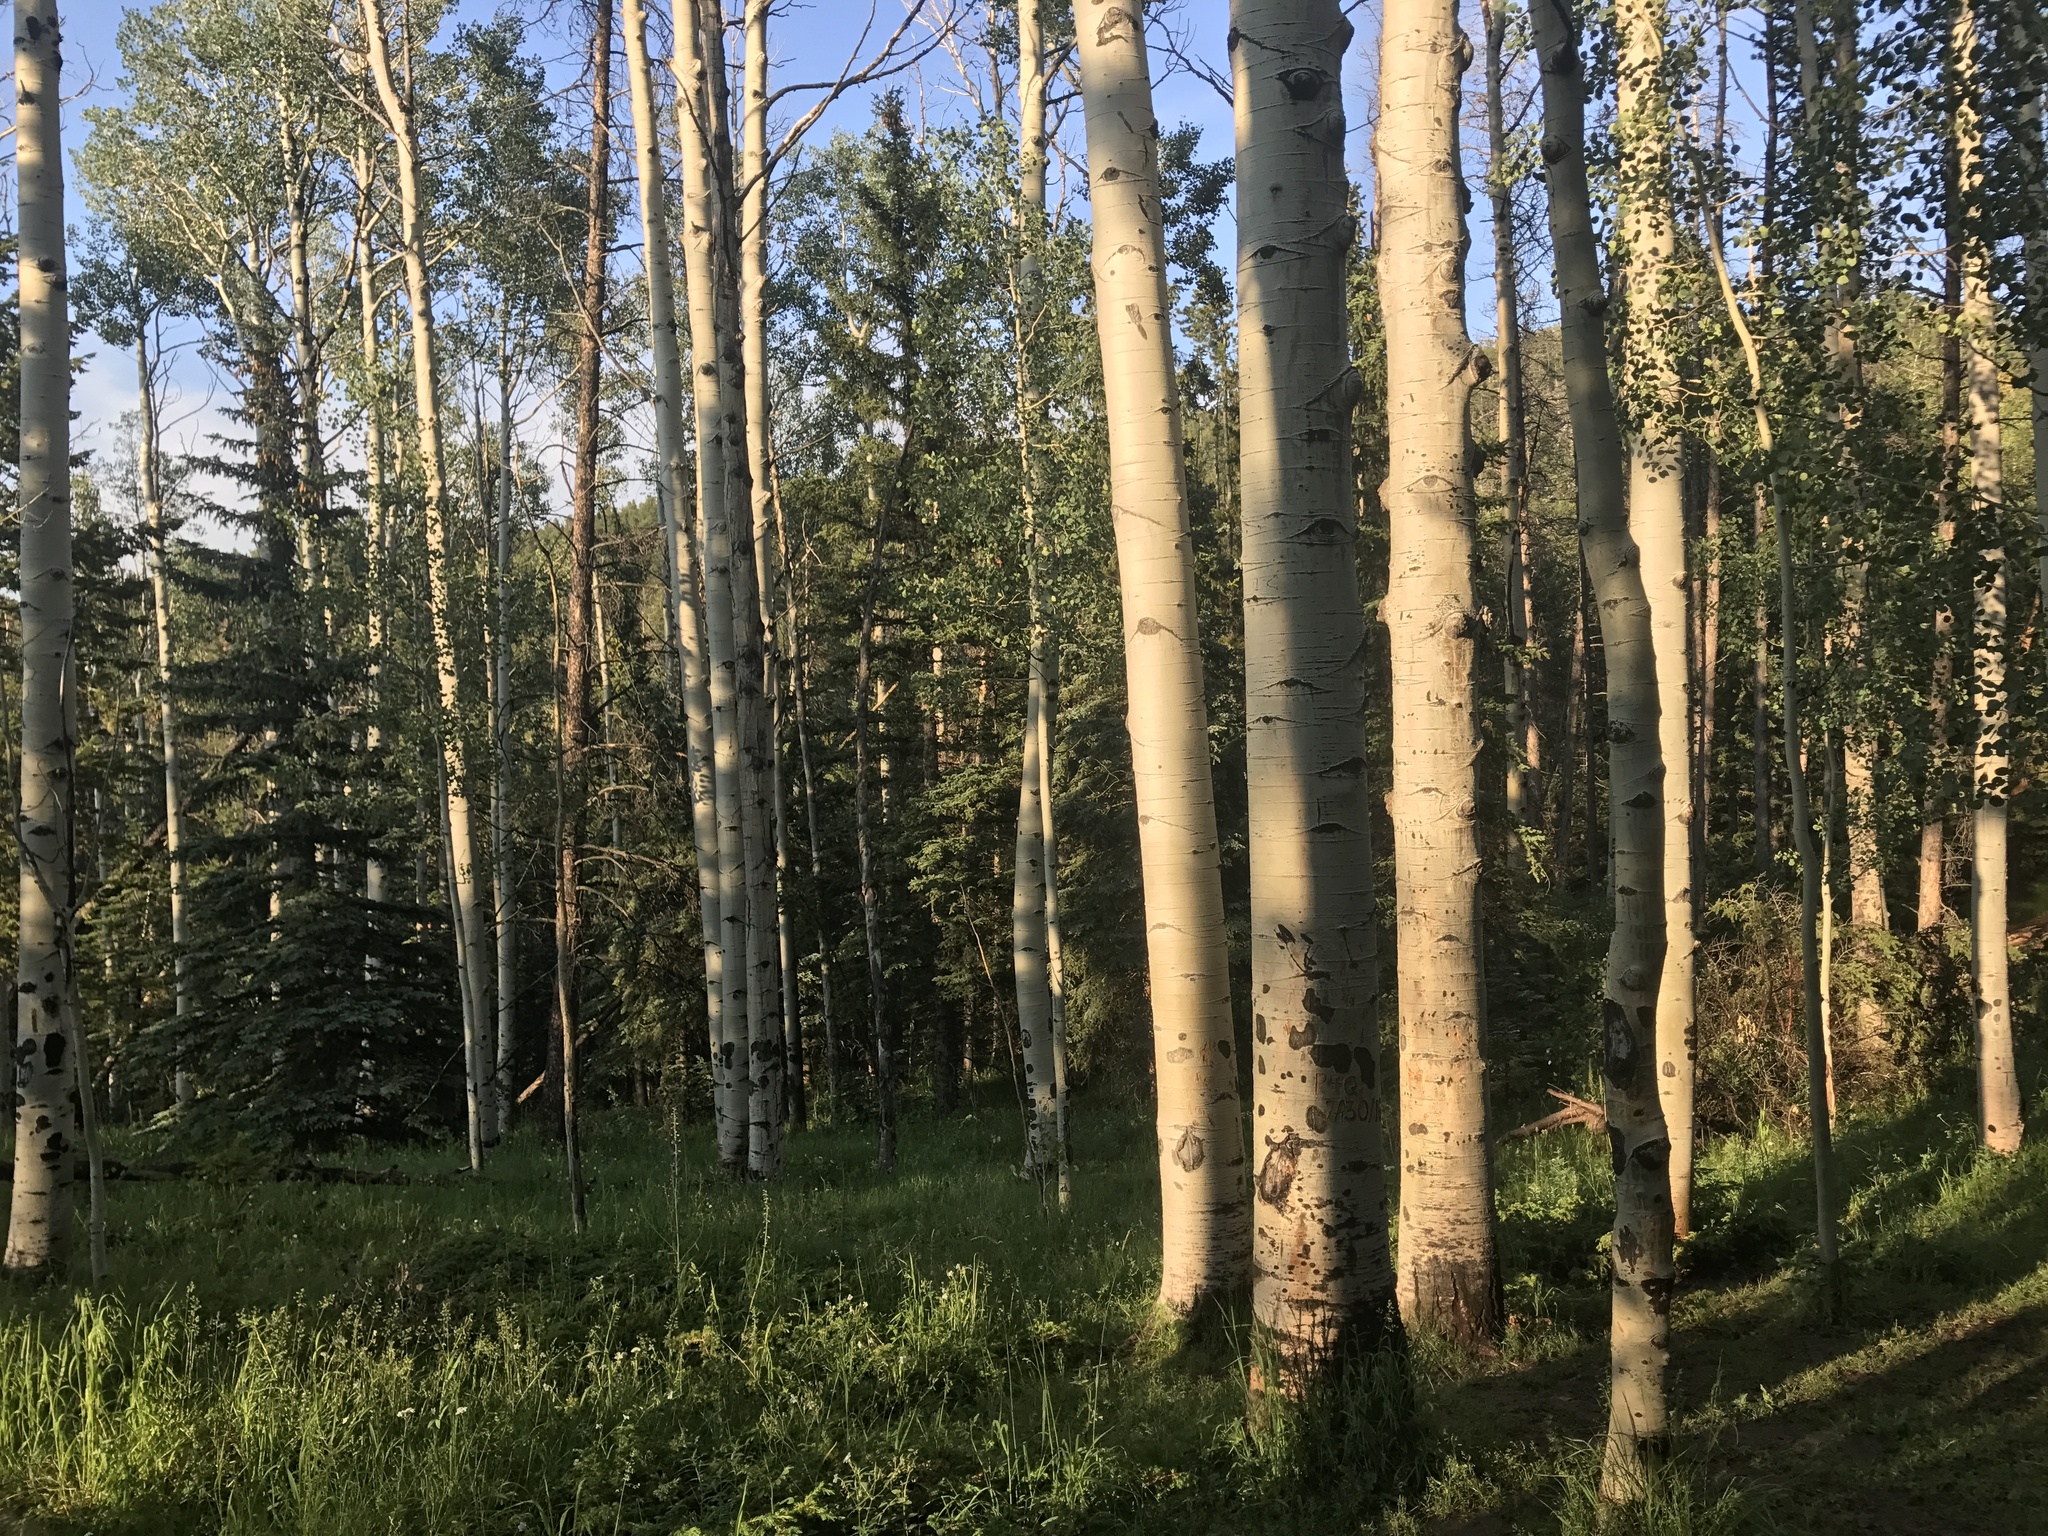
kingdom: Plantae
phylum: Tracheophyta
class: Magnoliopsida
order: Malpighiales
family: Salicaceae
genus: Populus
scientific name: Populus tremuloides
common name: Quaking aspen
